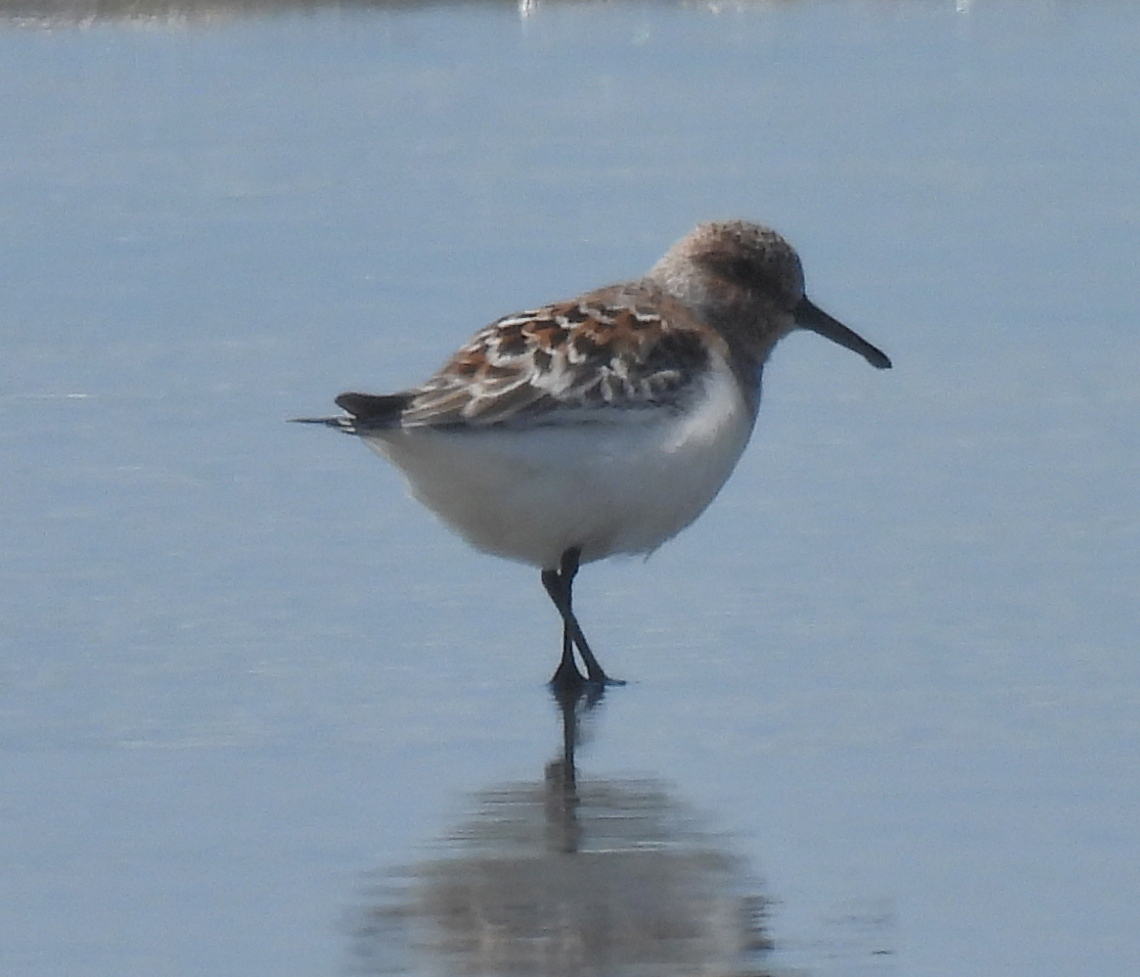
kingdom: Animalia
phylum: Chordata
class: Aves
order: Charadriiformes
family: Scolopacidae
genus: Calidris
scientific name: Calidris alba
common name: Sanderling
